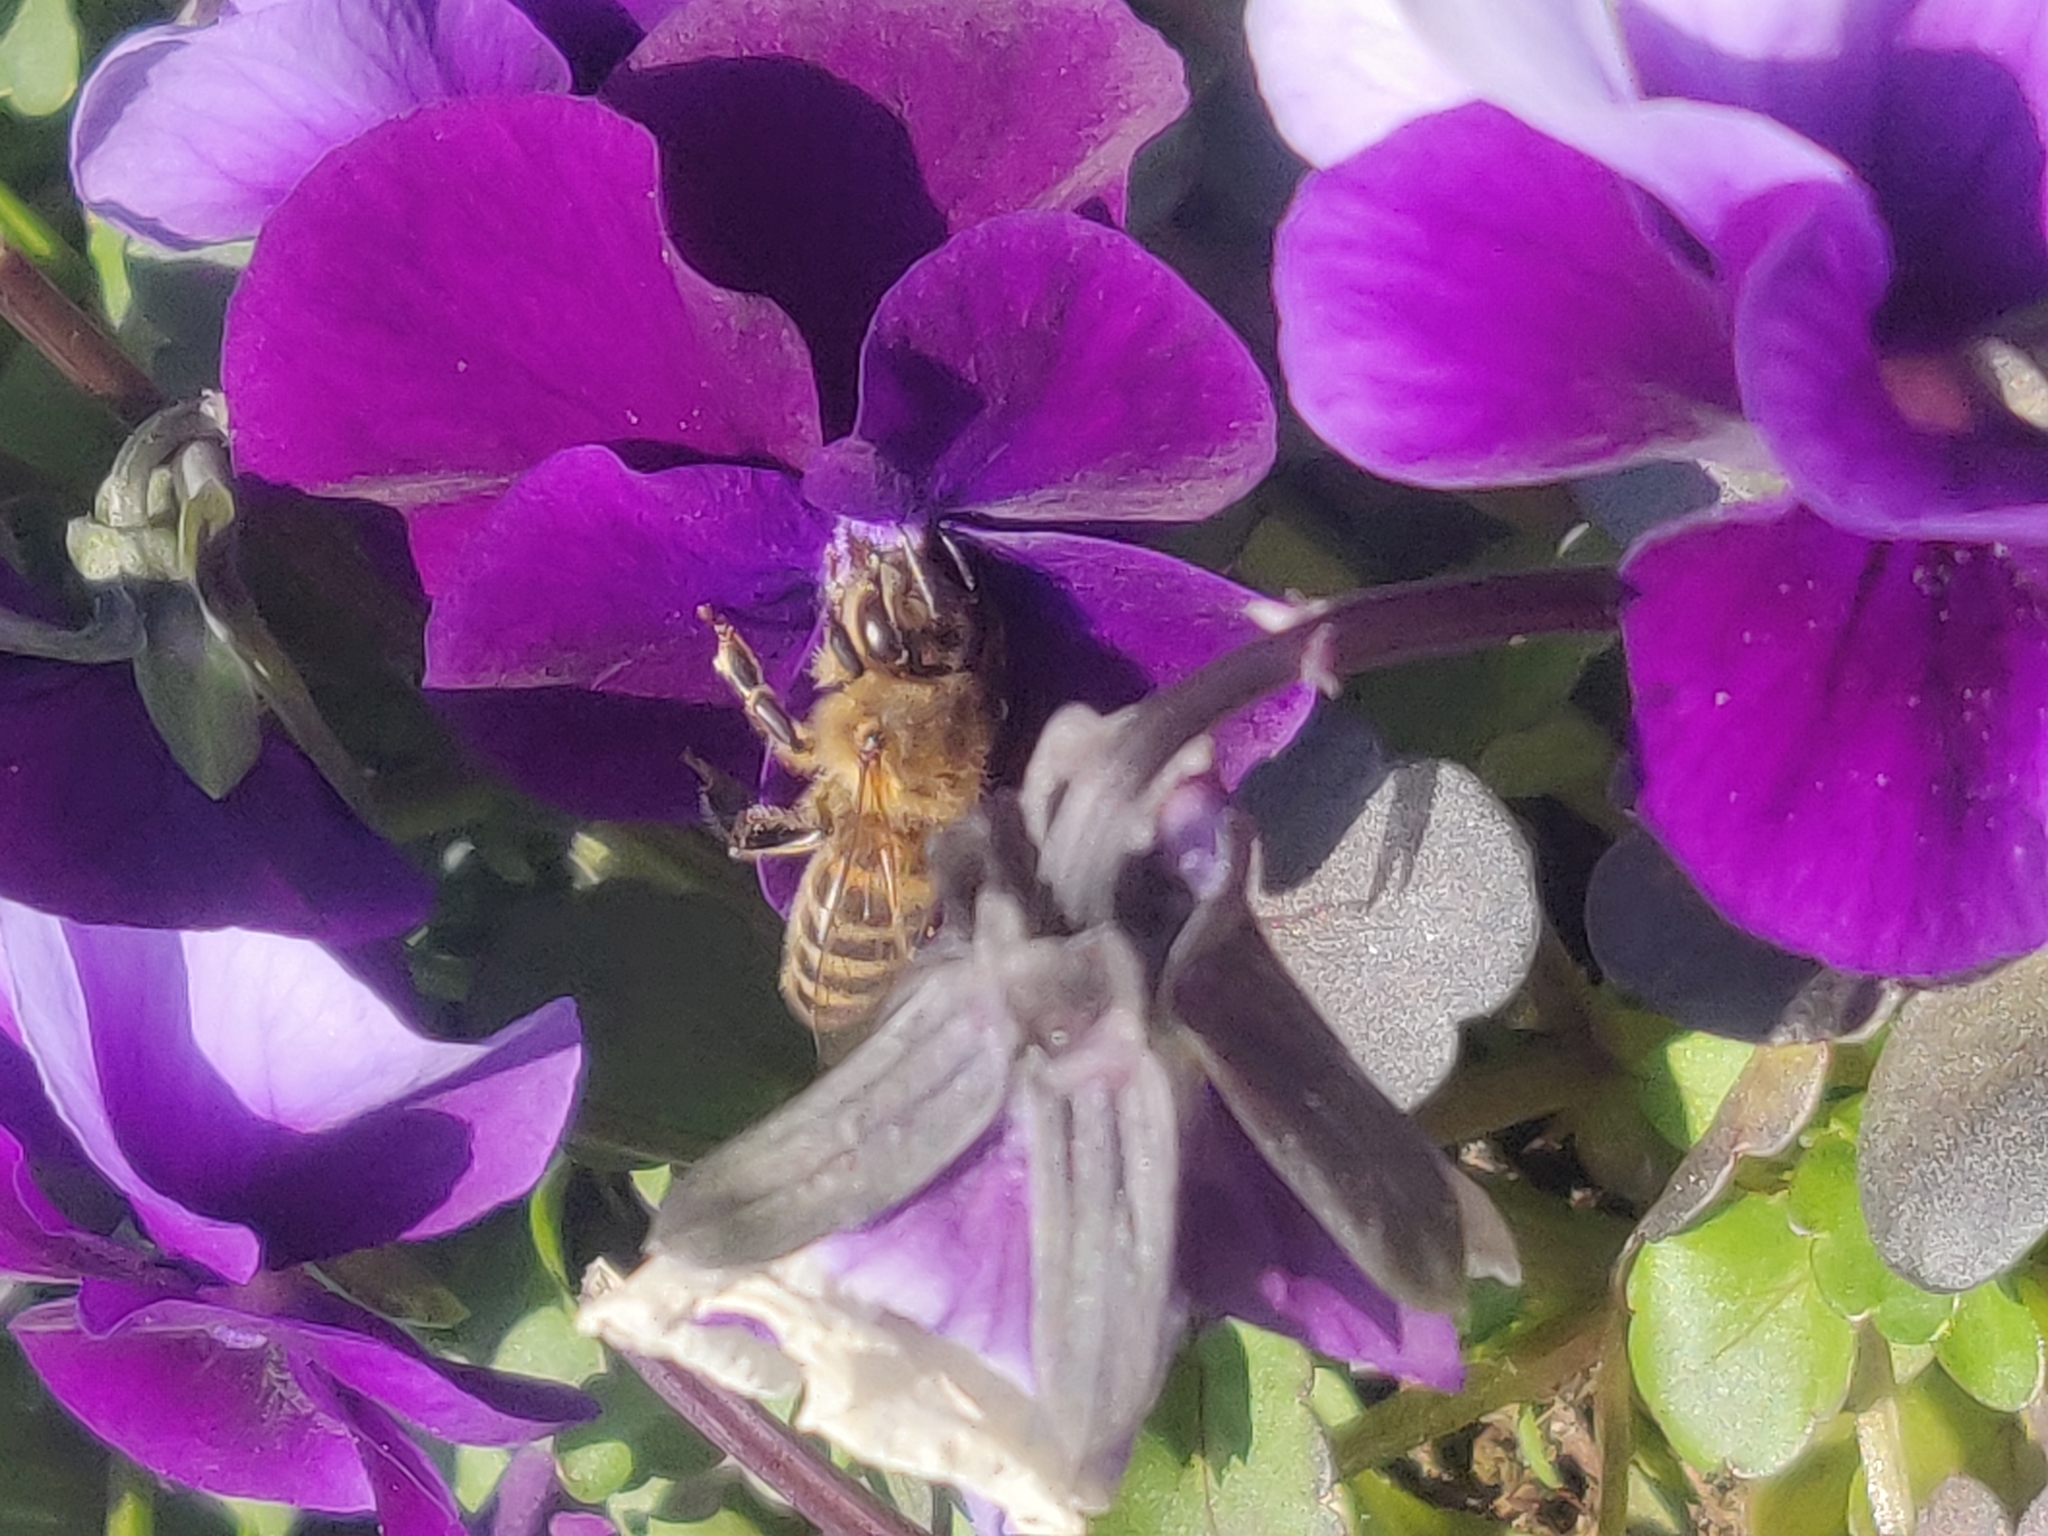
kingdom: Animalia
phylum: Arthropoda
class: Insecta
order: Hymenoptera
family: Apidae
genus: Apis
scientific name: Apis mellifera
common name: Honey bee
